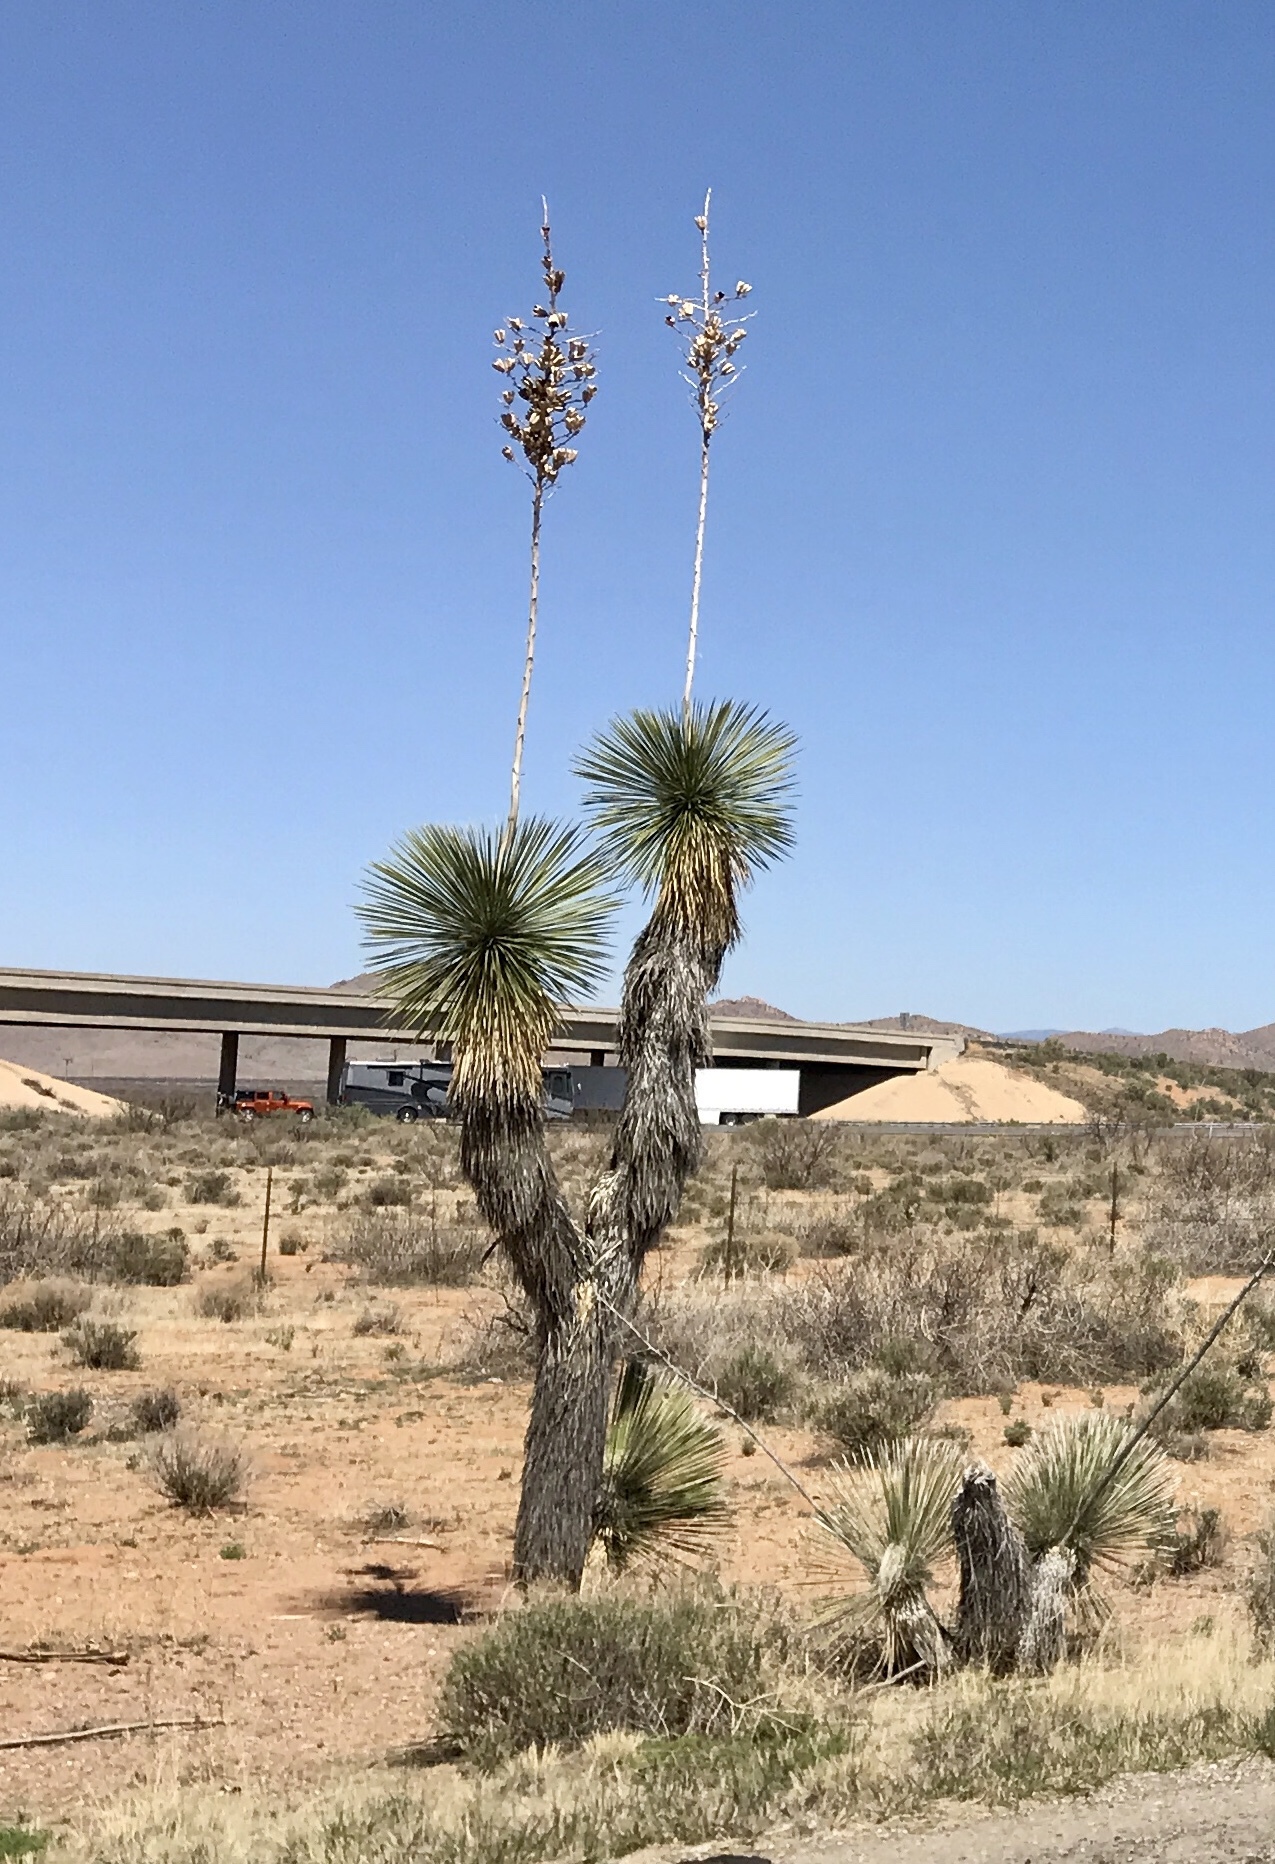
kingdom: Plantae
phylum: Tracheophyta
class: Liliopsida
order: Asparagales
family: Asparagaceae
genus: Yucca
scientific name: Yucca elata
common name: Palmella
